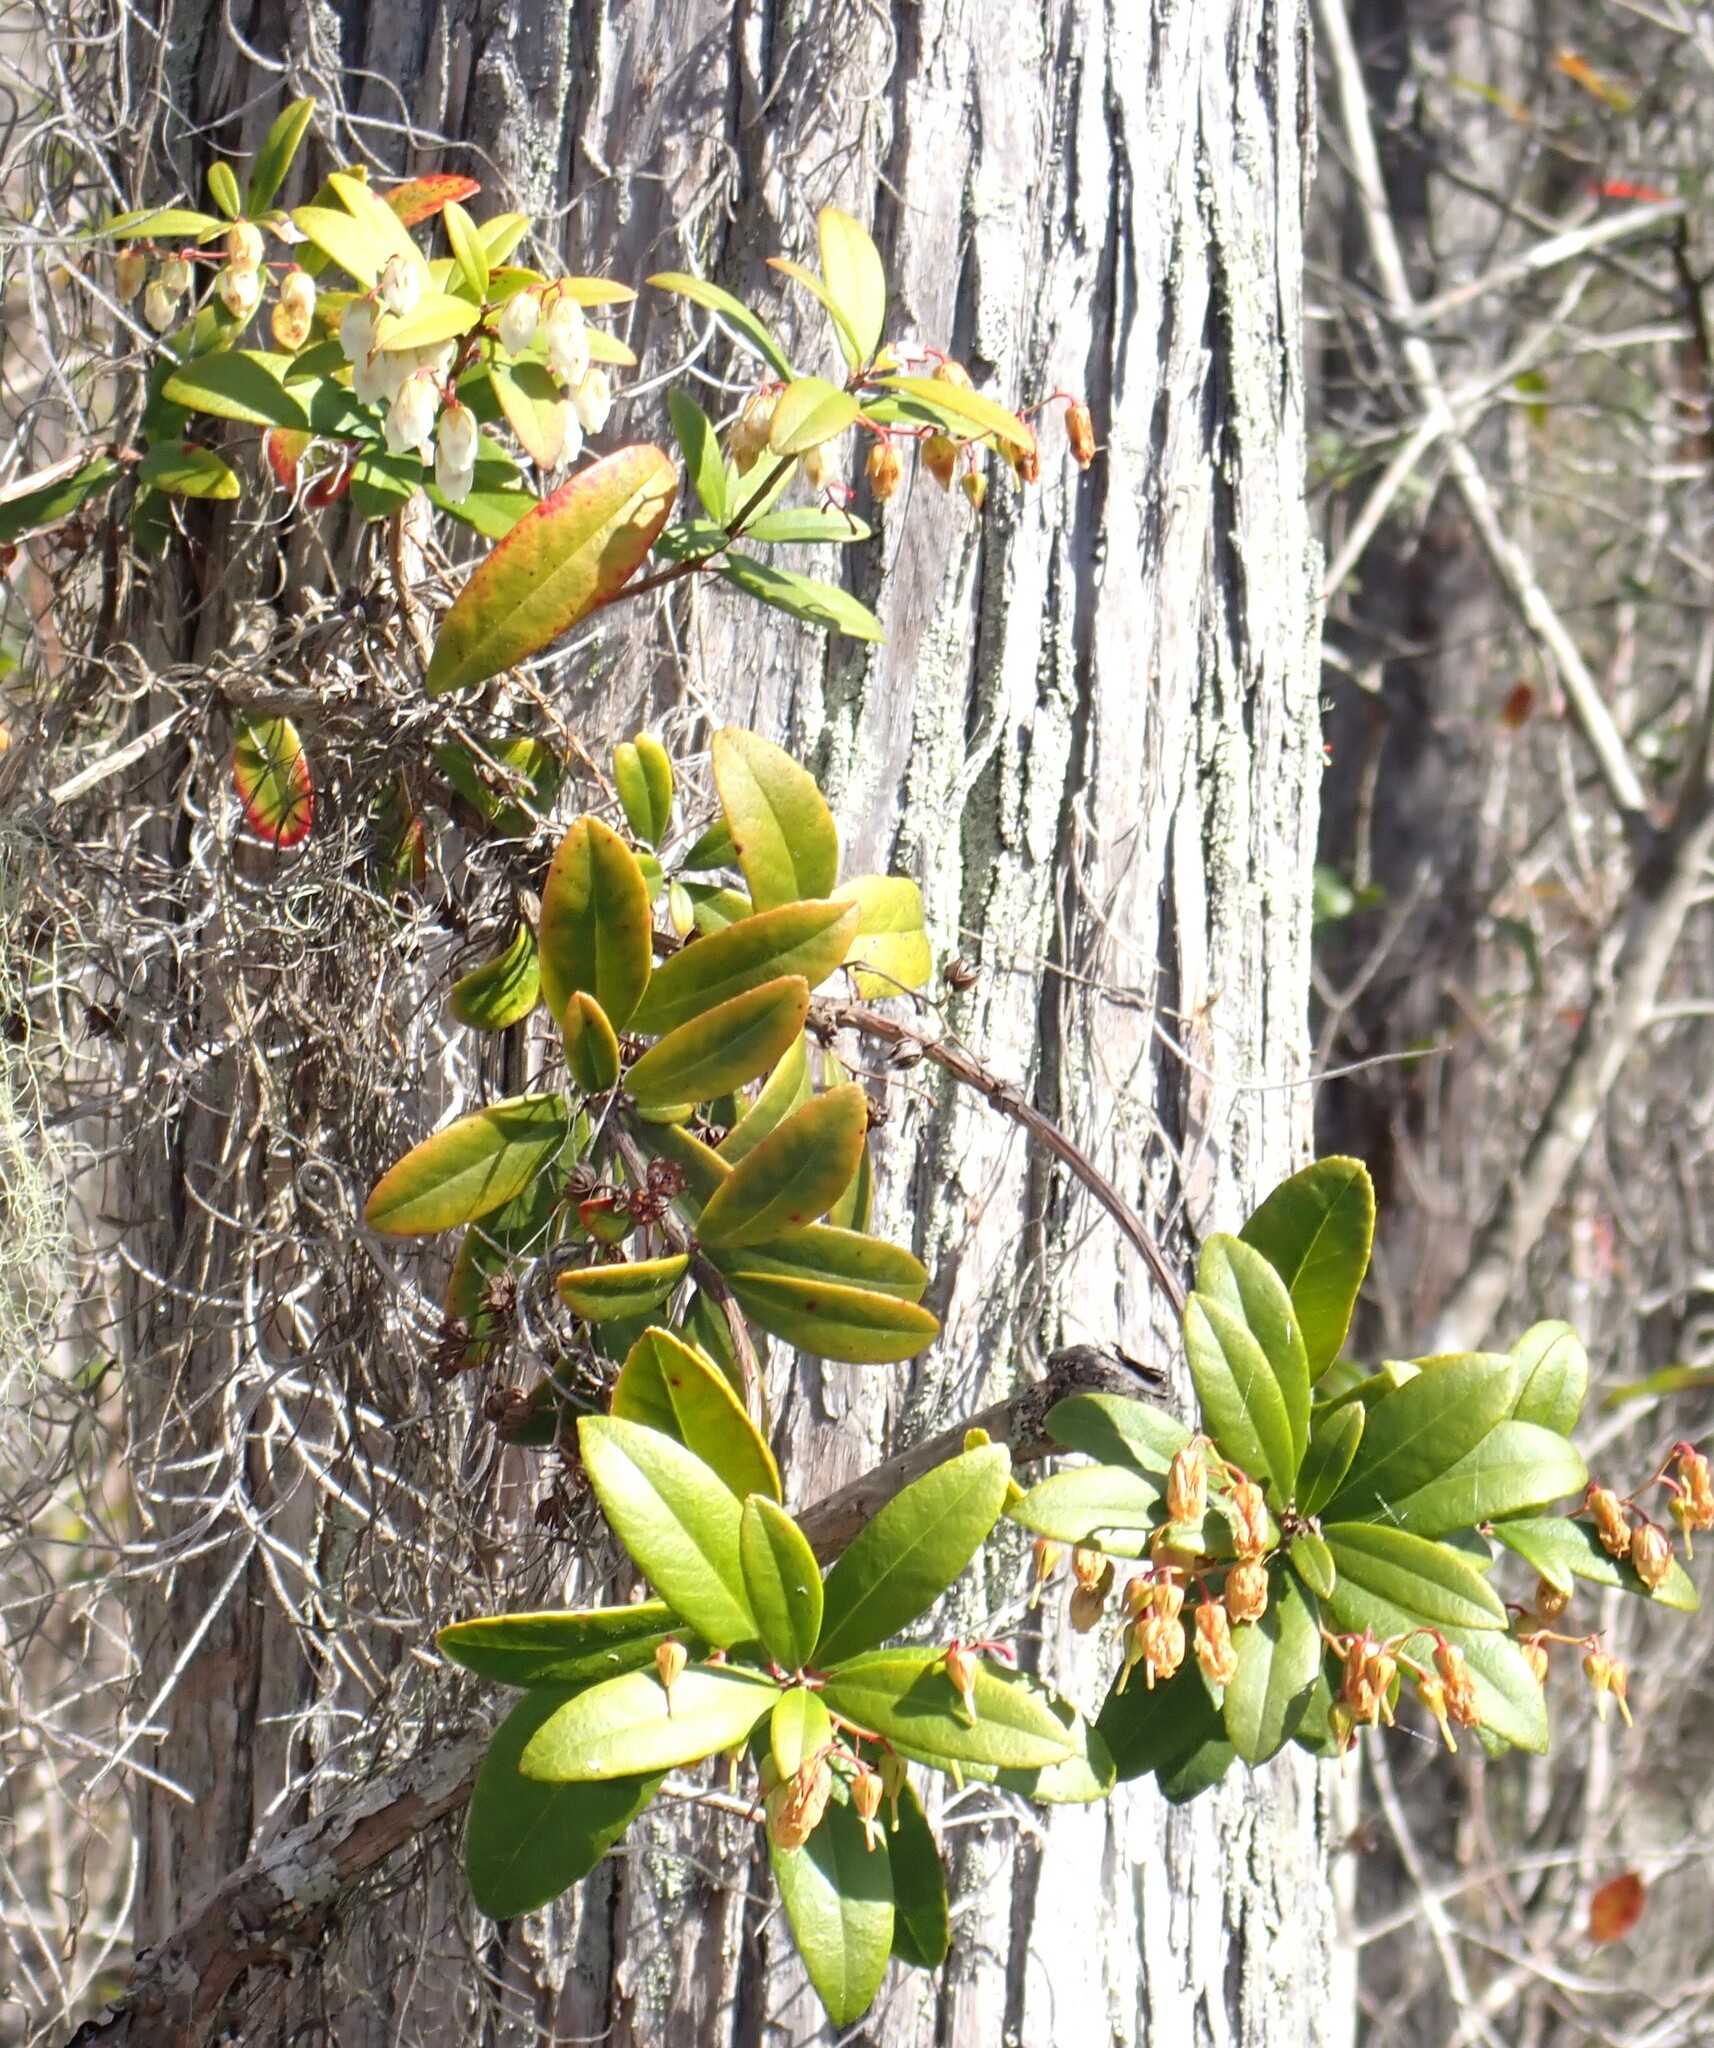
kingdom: Plantae
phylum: Tracheophyta
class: Magnoliopsida
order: Ericales
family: Ericaceae
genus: Pieris
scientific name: Pieris phillyreifolia
